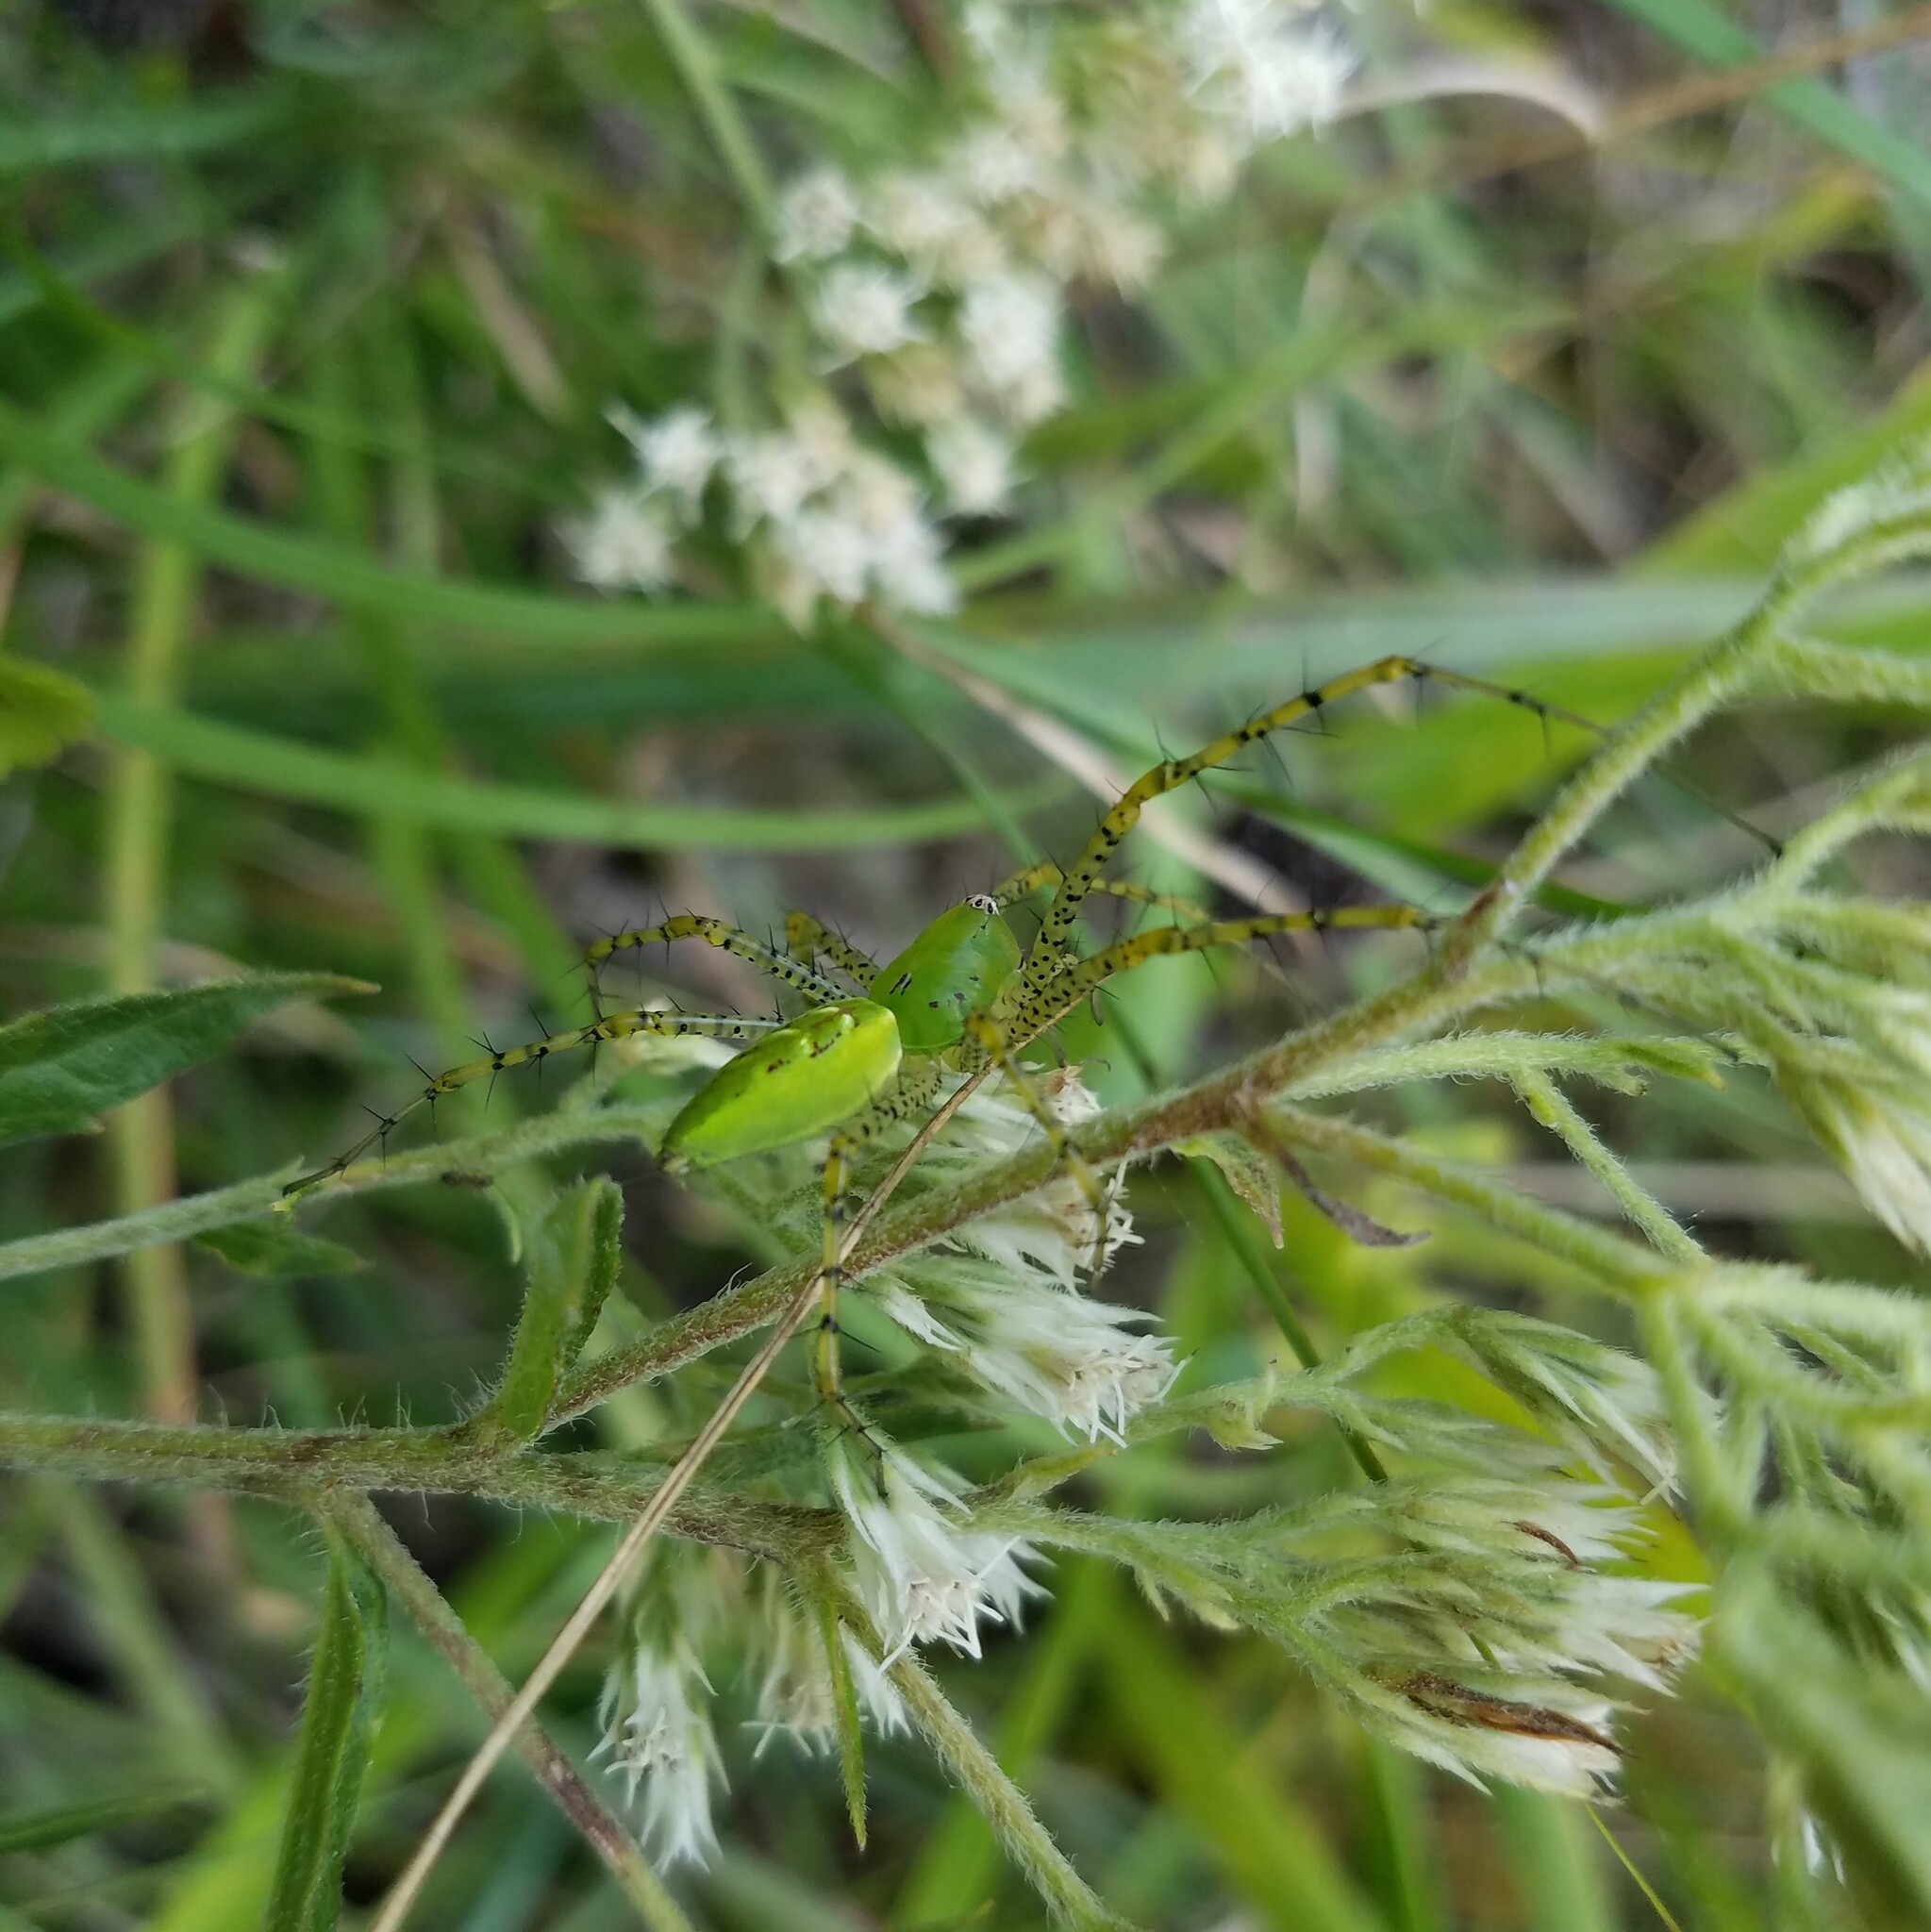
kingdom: Animalia
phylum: Arthropoda
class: Arachnida
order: Araneae
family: Oxyopidae
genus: Peucetia
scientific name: Peucetia viridans
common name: Lynx spiders
